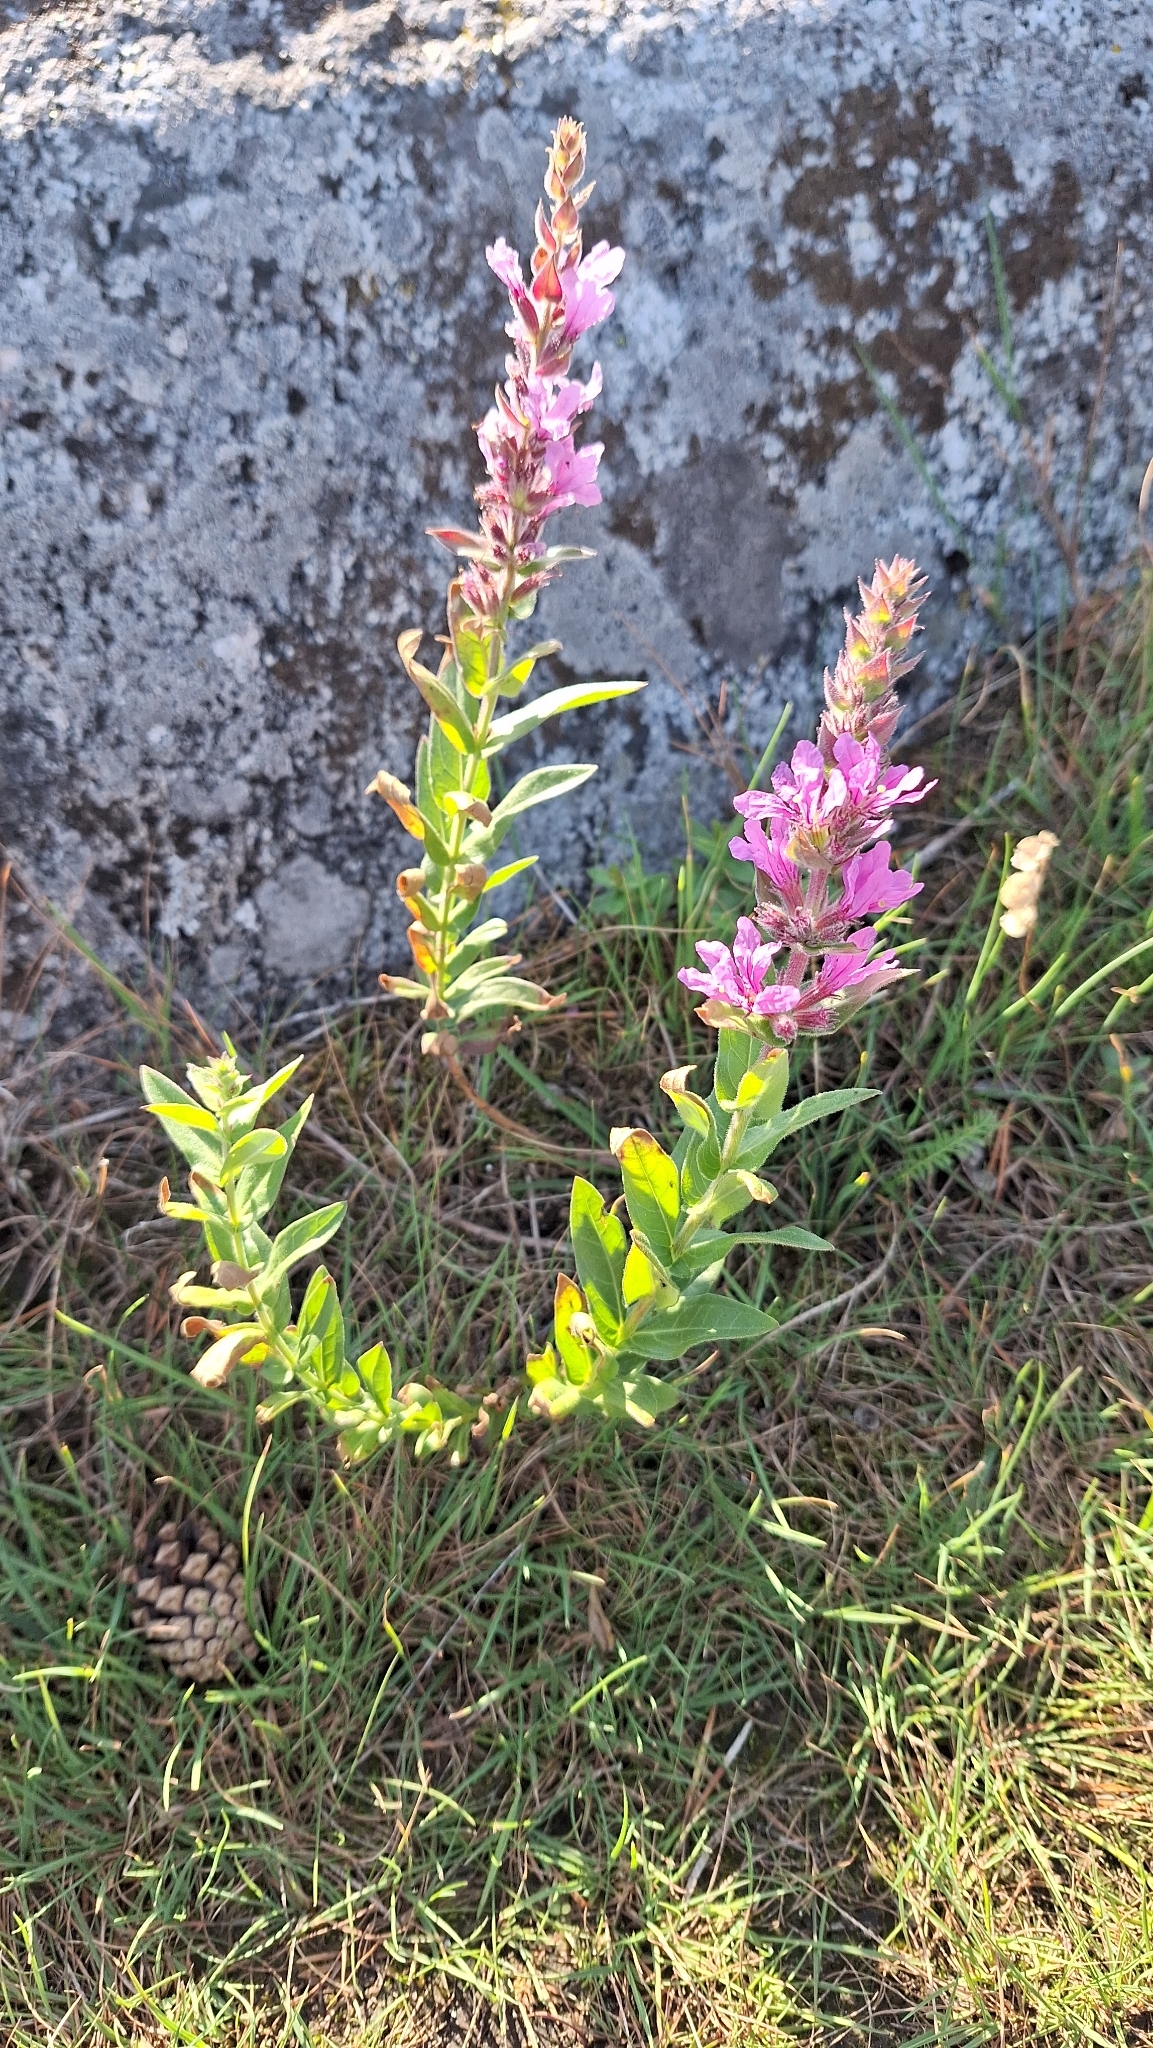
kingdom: Plantae
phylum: Tracheophyta
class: Magnoliopsida
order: Myrtales
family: Lythraceae
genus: Lythrum
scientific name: Lythrum salicaria
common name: Purple loosestrife
